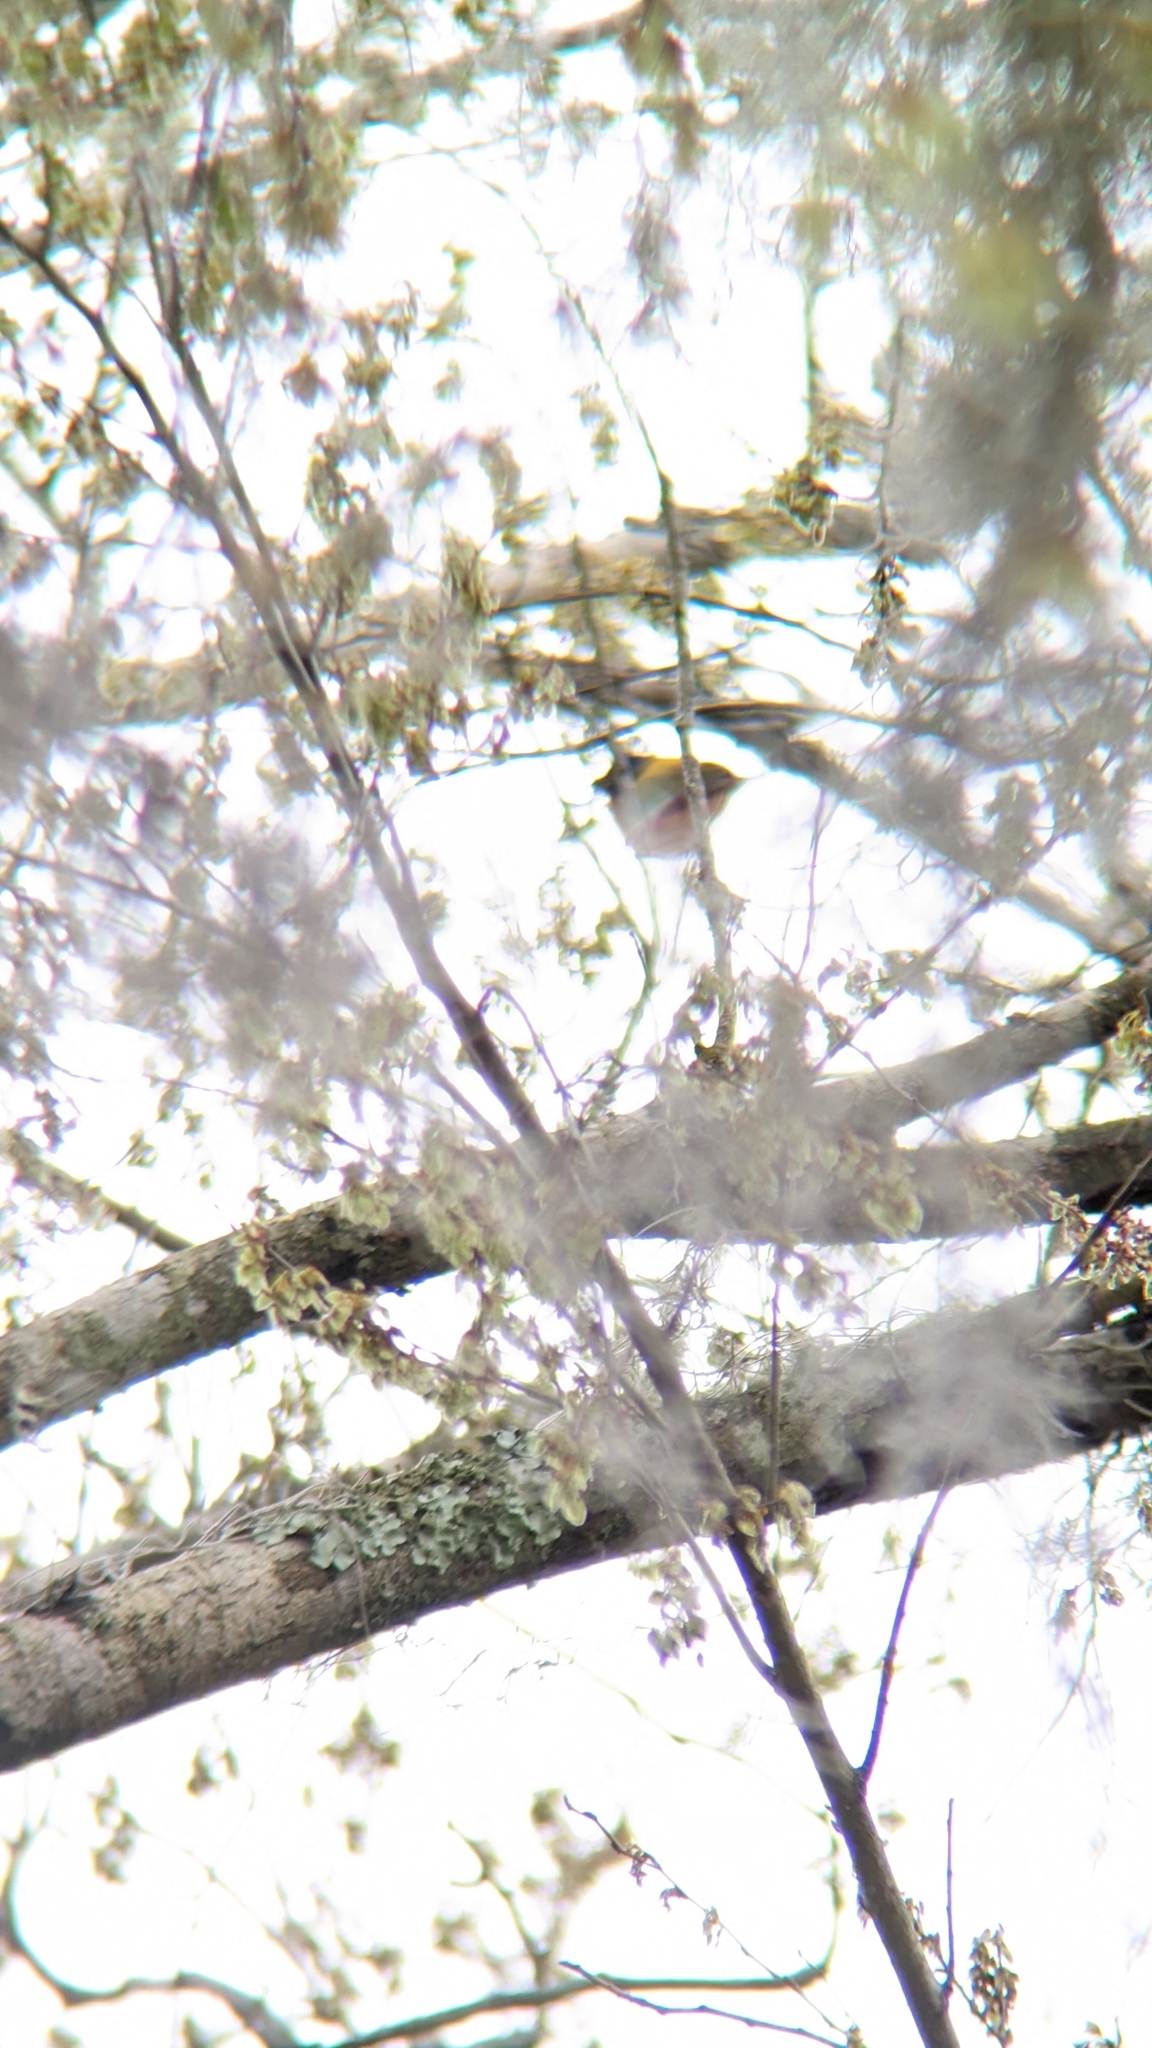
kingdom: Animalia
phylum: Chordata
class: Aves
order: Passeriformes
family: Cardinalidae
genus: Passerina
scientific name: Passerina ciris
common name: Painted bunting
